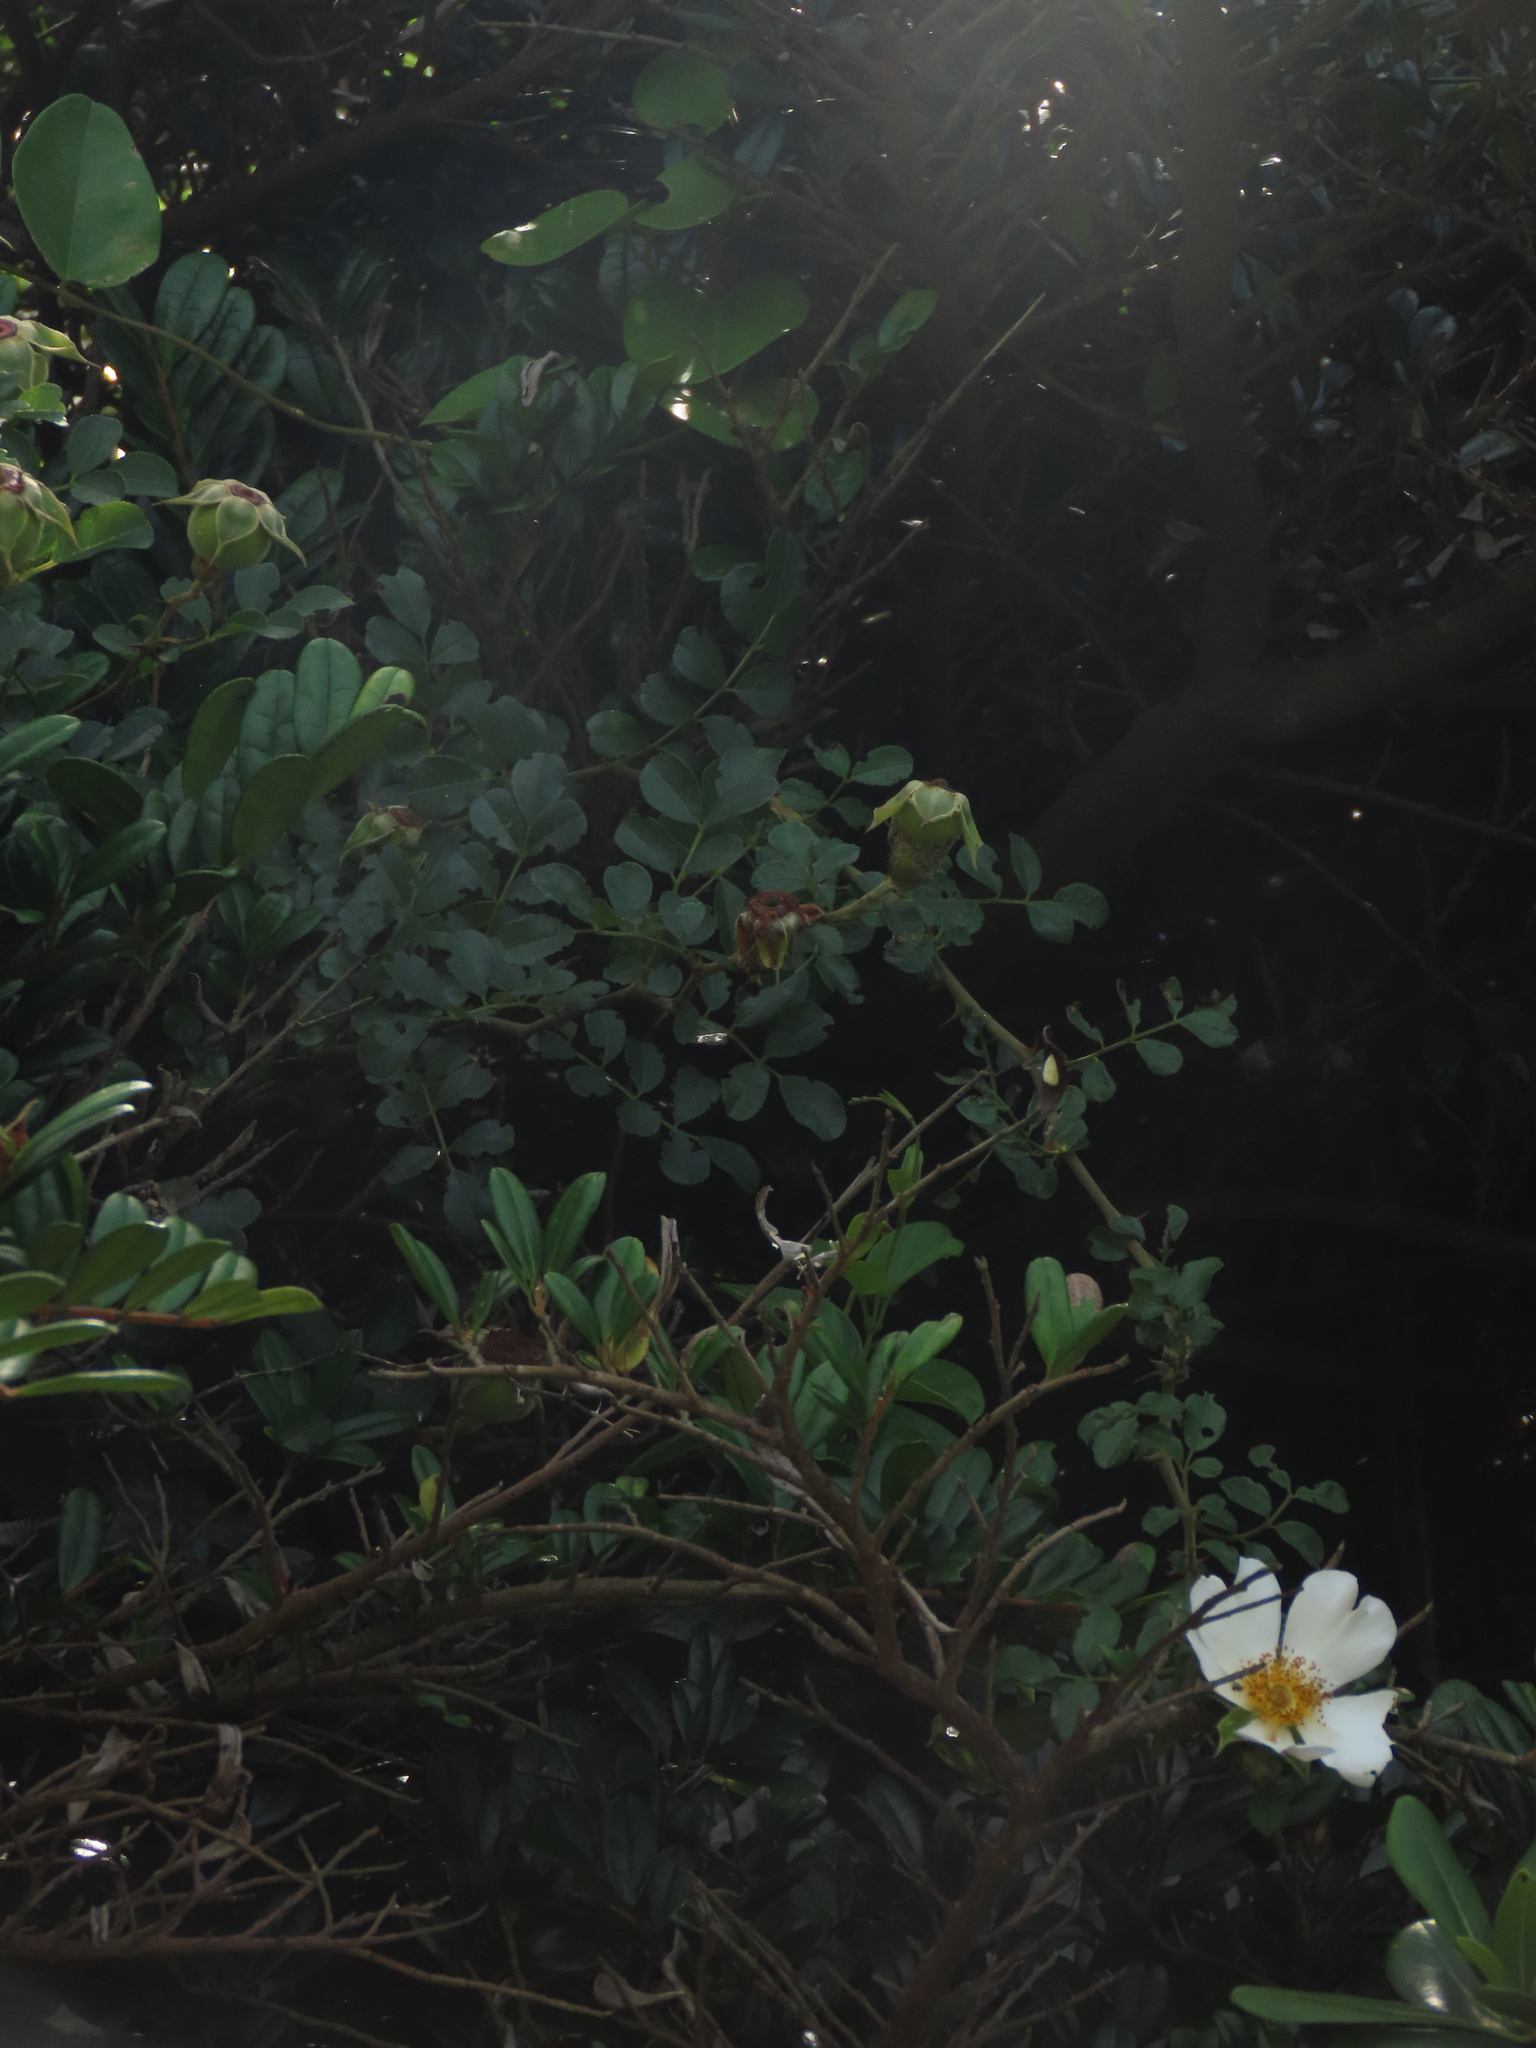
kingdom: Plantae
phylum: Tracheophyta
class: Magnoliopsida
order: Rosales
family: Rosaceae
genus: Rosa
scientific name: Rosa bracteata
